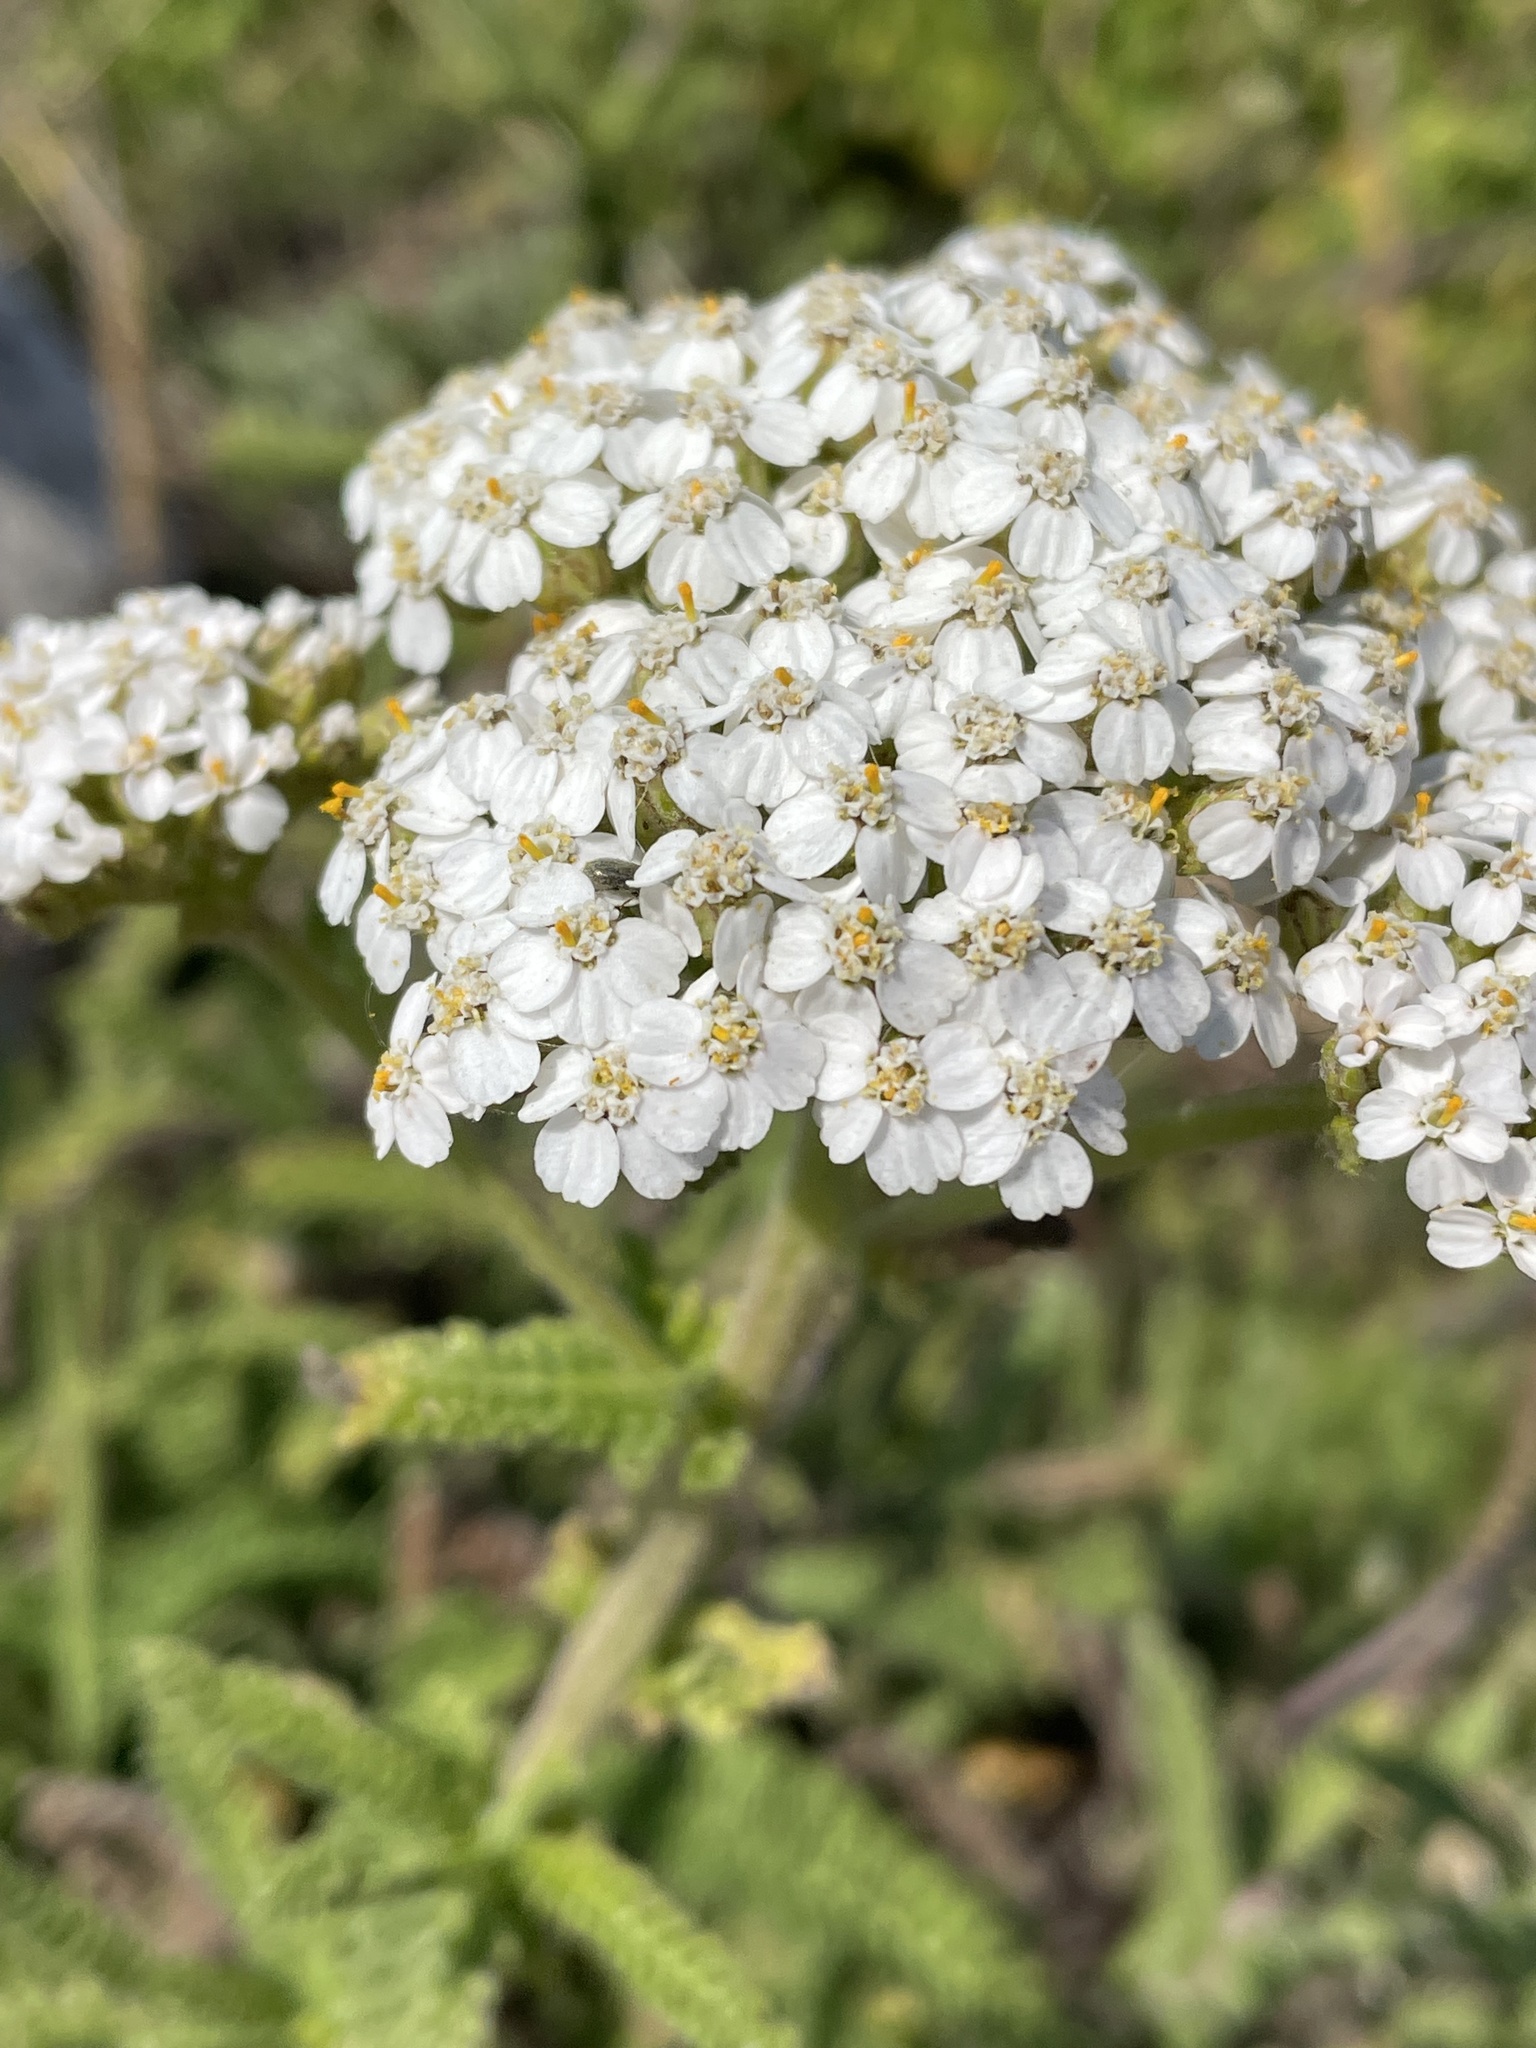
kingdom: Plantae
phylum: Tracheophyta
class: Magnoliopsida
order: Asterales
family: Asteraceae
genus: Achillea
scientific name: Achillea millefolium
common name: Yarrow
